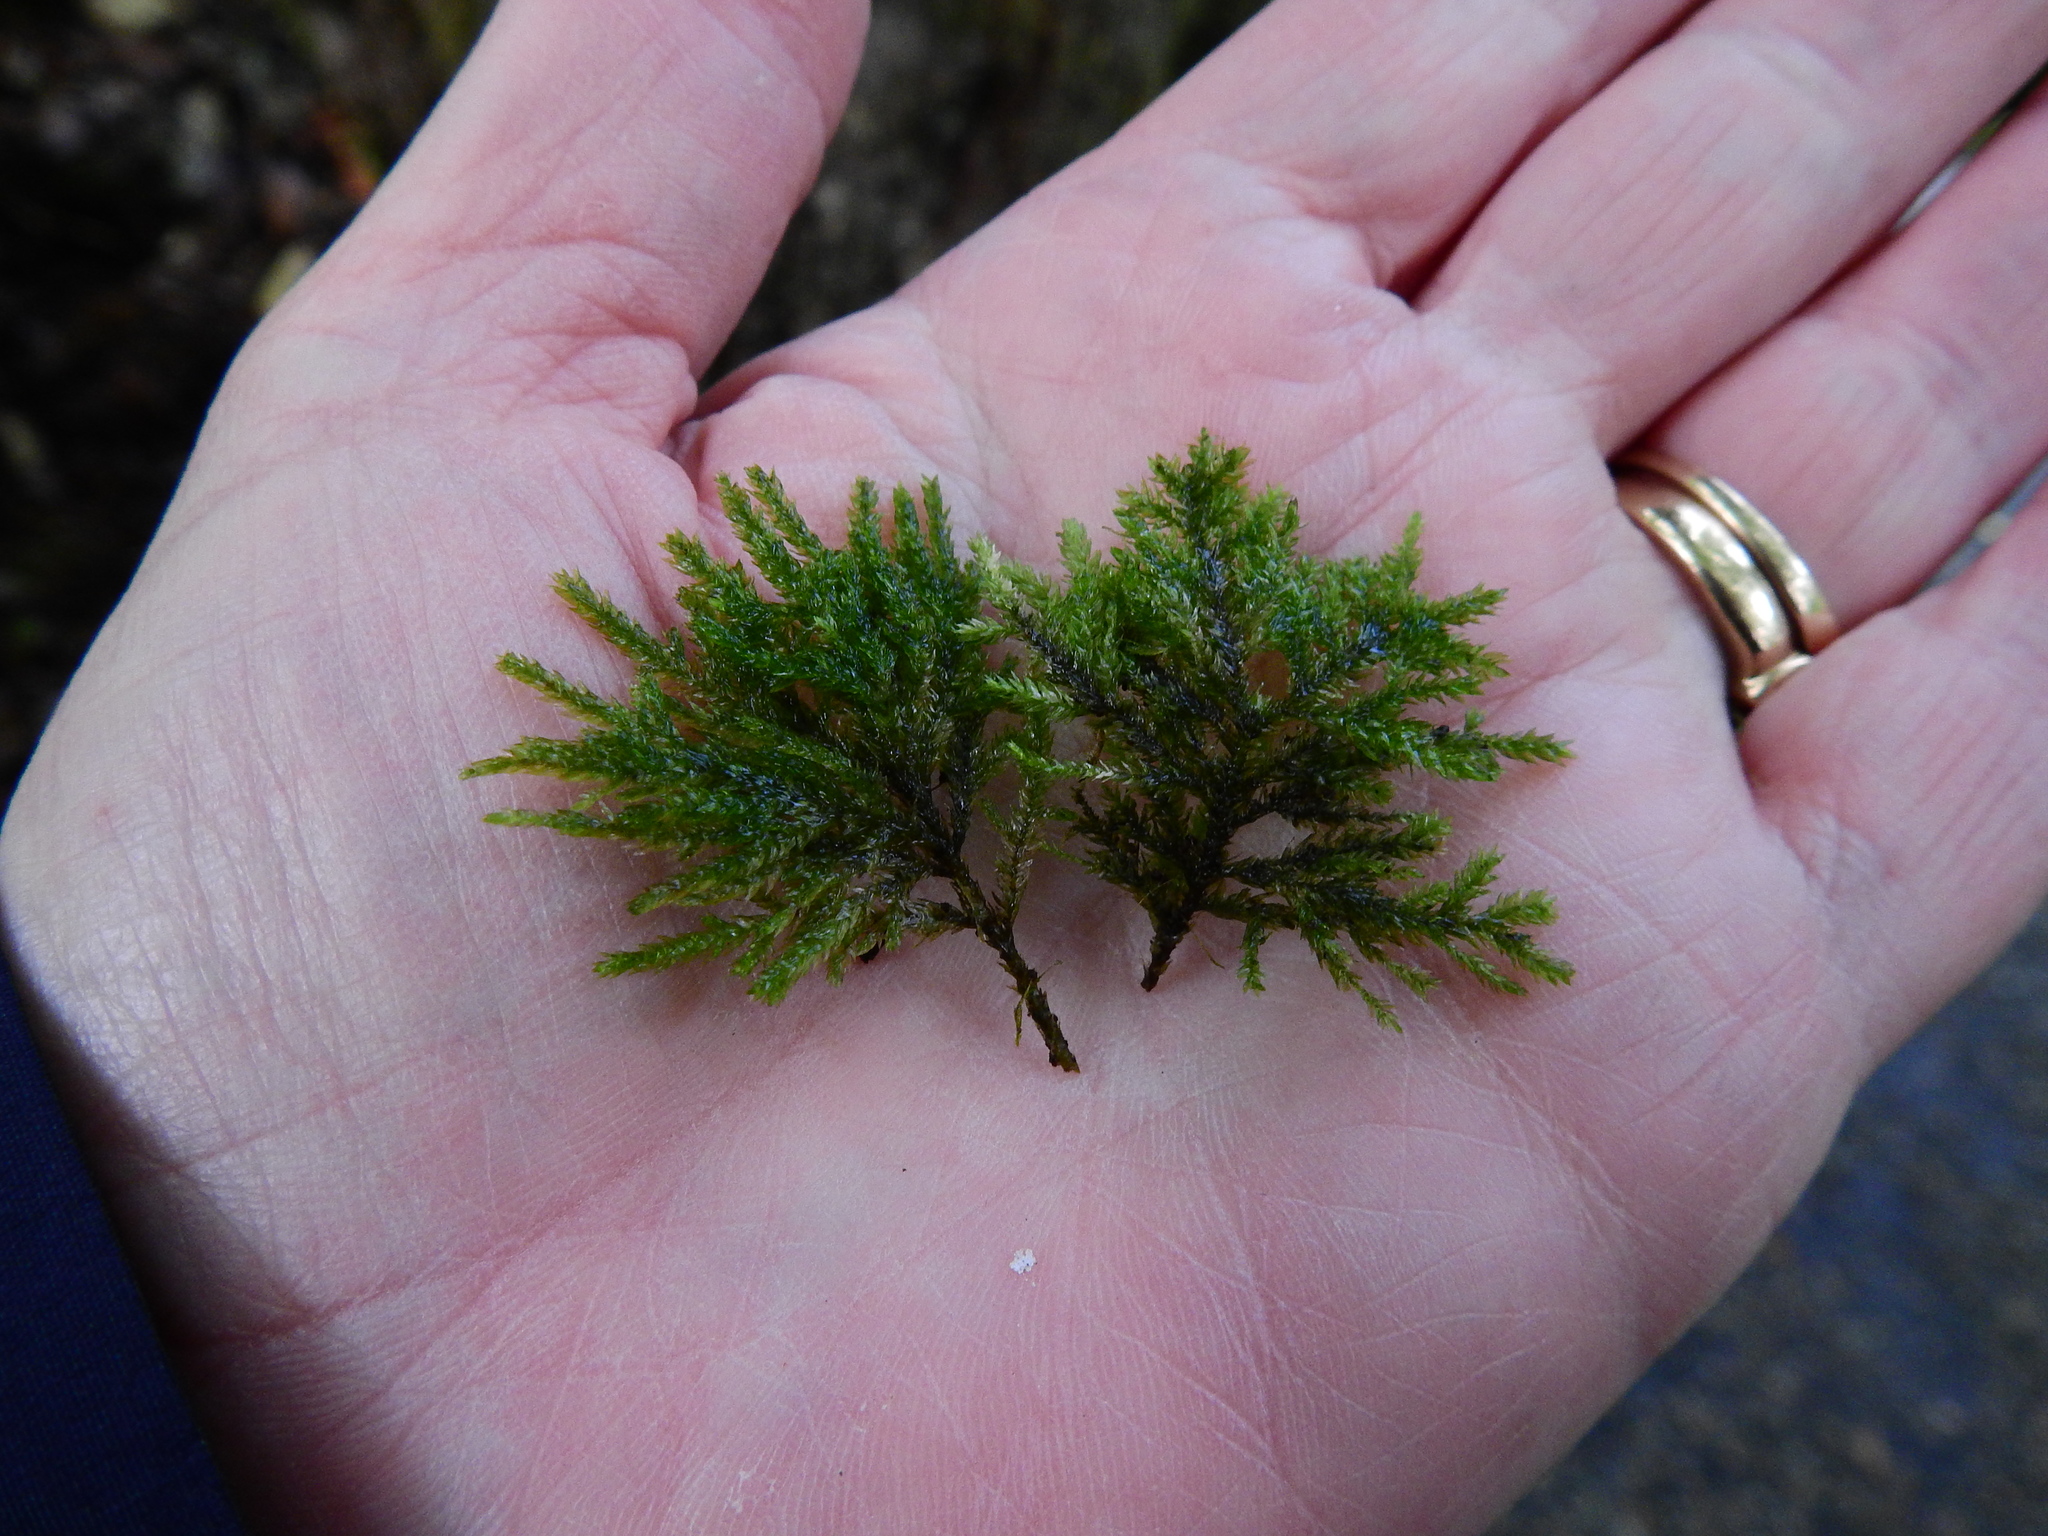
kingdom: Plantae
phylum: Bryophyta
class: Bryopsida
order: Hypnales
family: Neckeraceae
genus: Thamnobryum
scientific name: Thamnobryum alopecurum
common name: Fox-tail feather-moss
